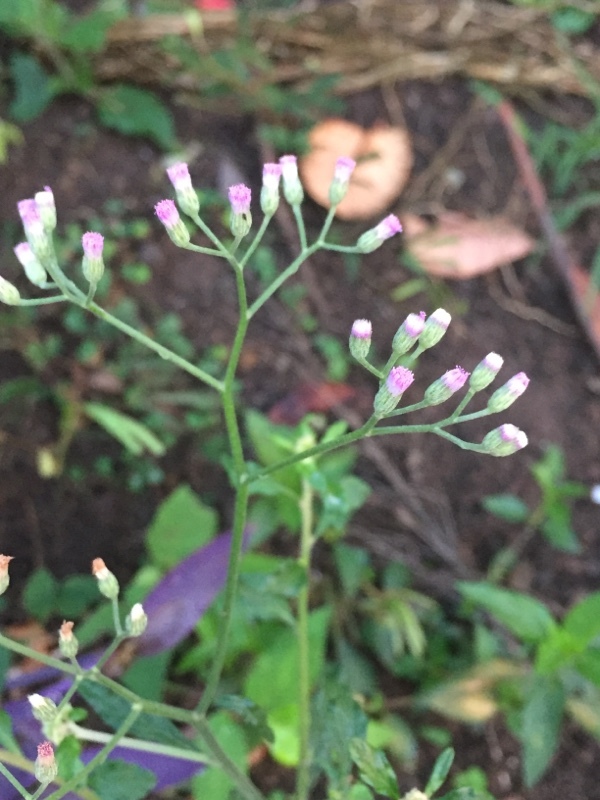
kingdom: Plantae
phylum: Tracheophyta
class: Magnoliopsida
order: Asterales
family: Asteraceae
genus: Cyanthillium
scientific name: Cyanthillium cinereum
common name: Little ironweed
